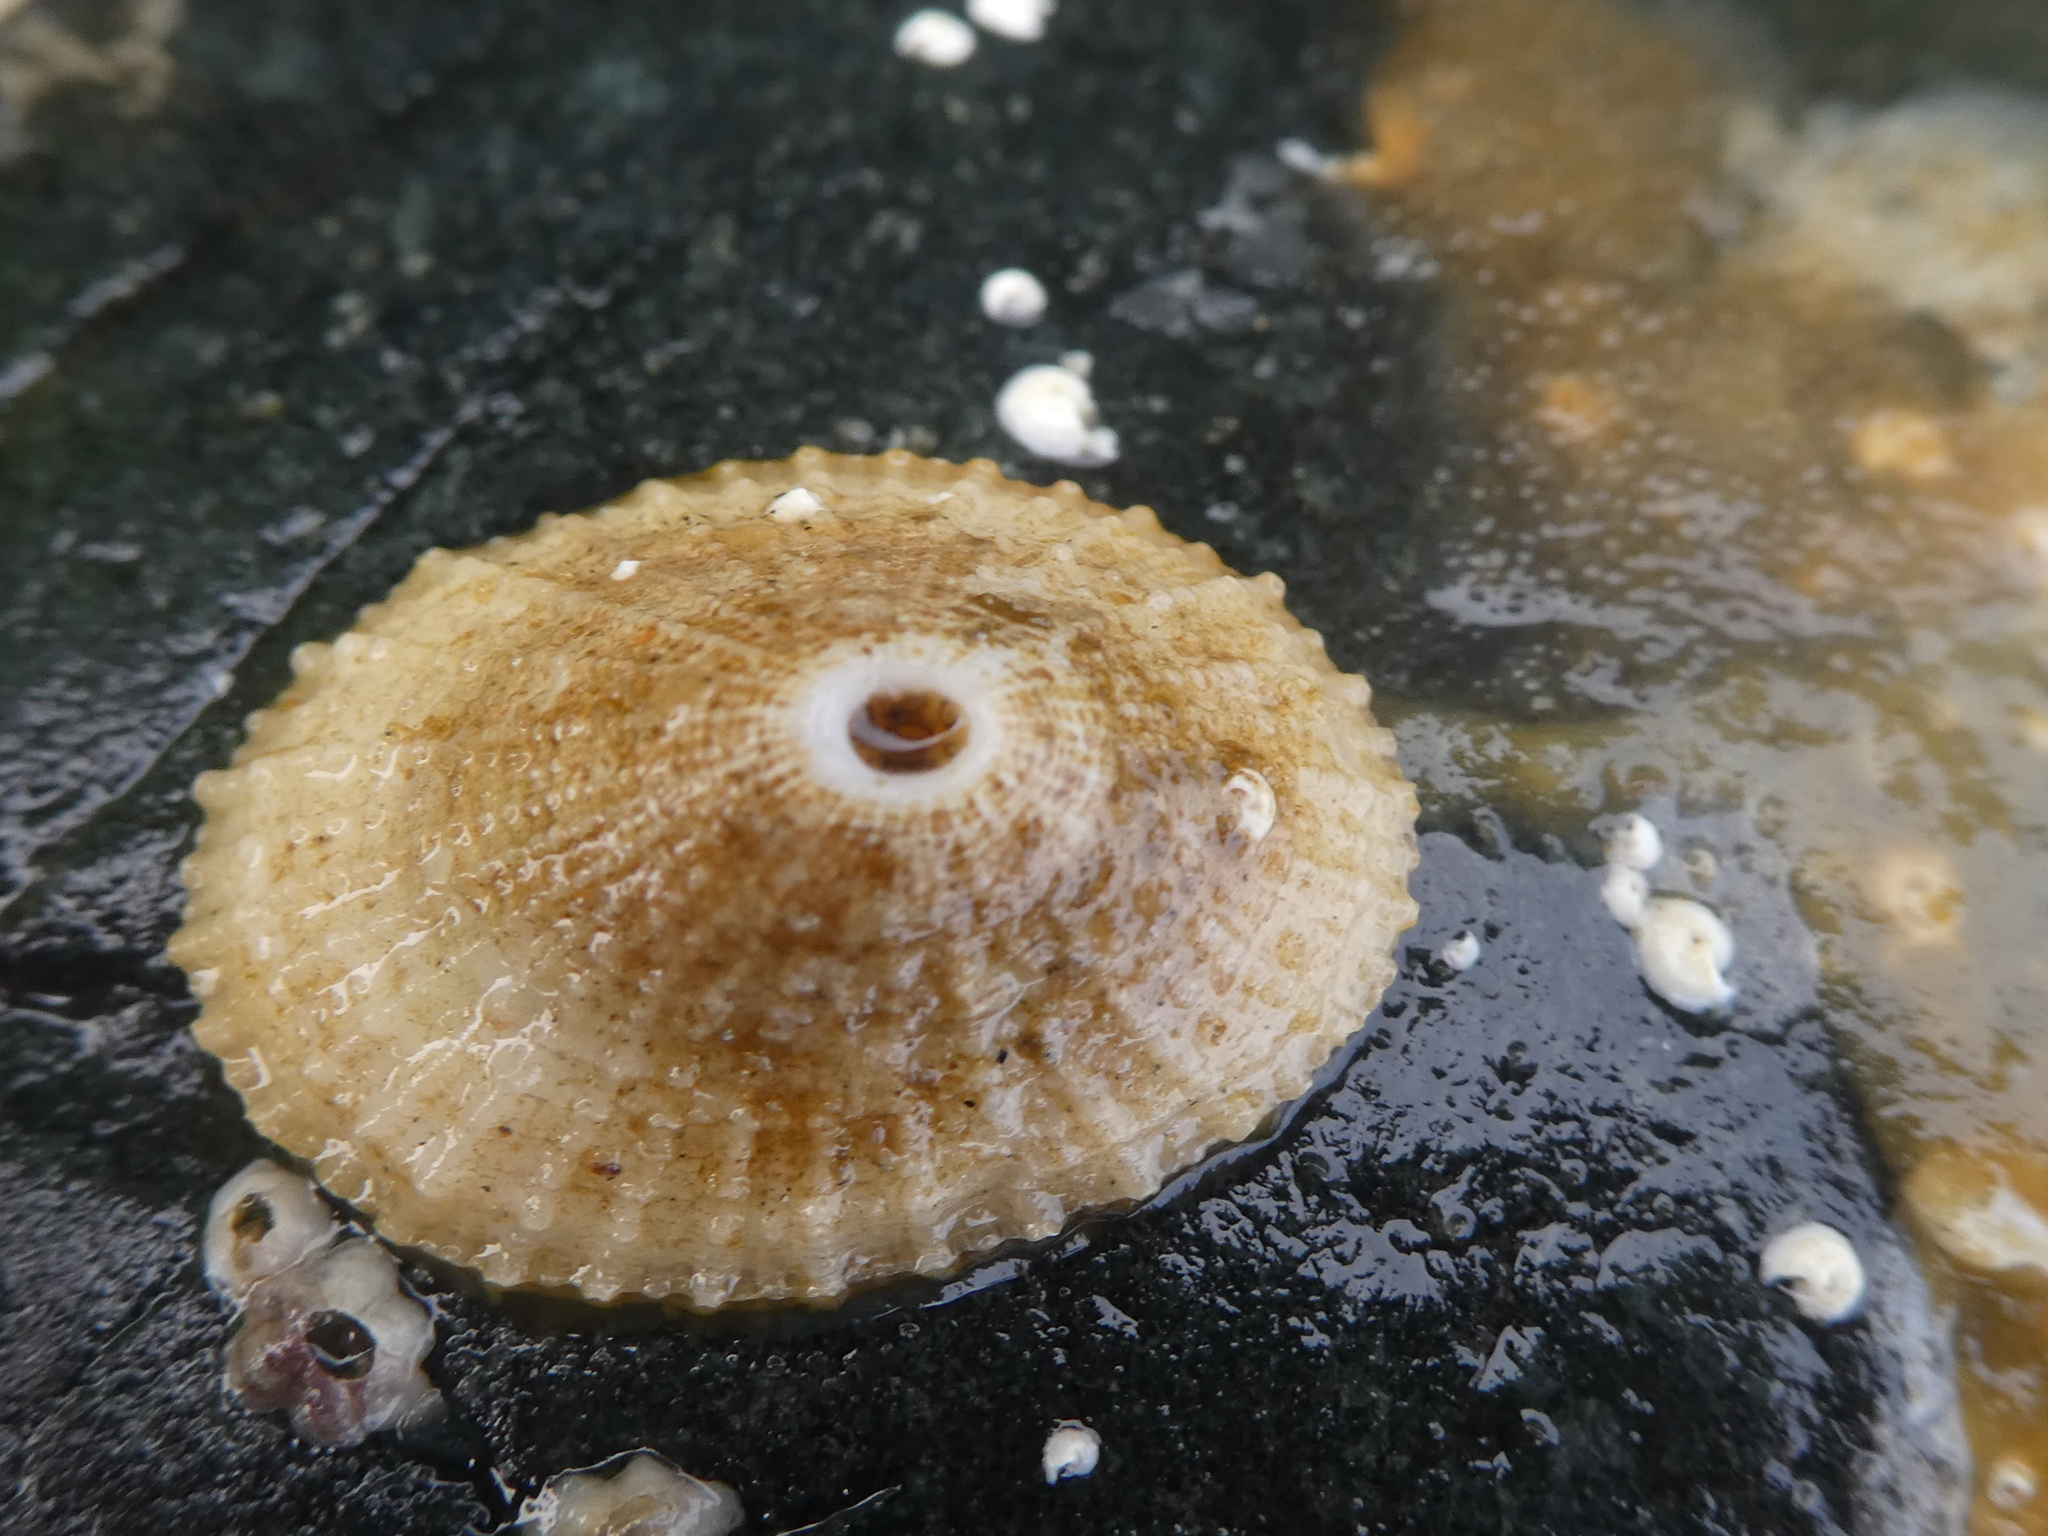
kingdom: Animalia
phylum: Mollusca
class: Gastropoda
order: Lepetellida
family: Fissurellidae
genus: Diodora
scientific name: Diodora aspera
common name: Rough keyhole limpet
